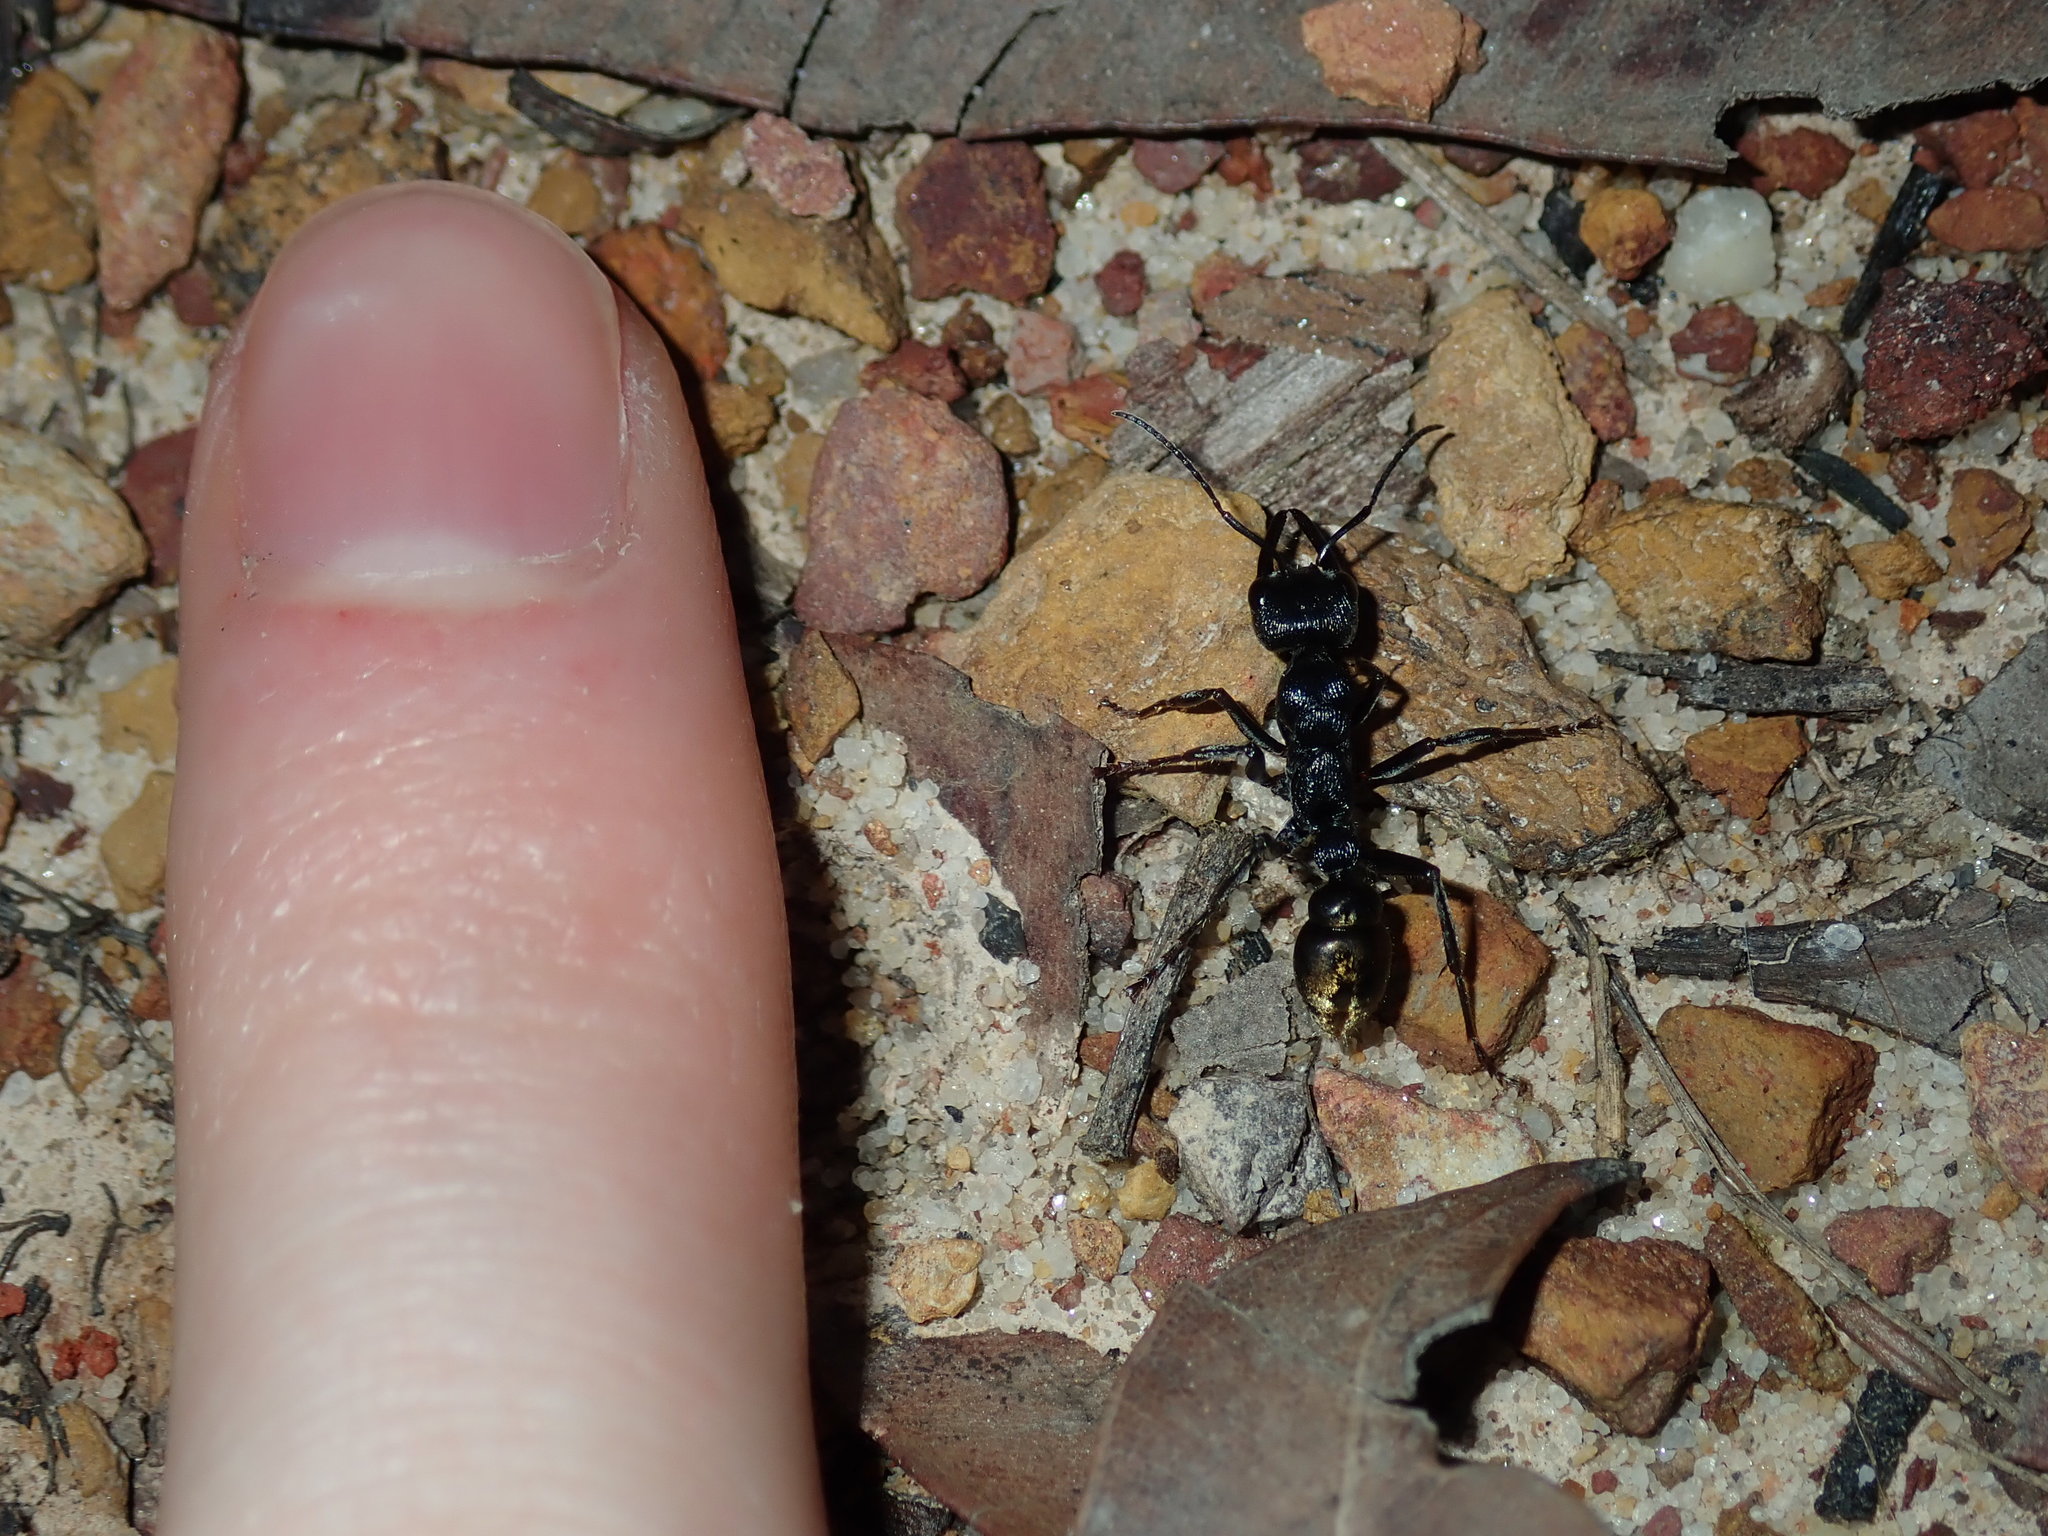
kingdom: Animalia
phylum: Arthropoda
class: Insecta
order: Hymenoptera
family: Formicidae
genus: Myrmecia
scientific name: Myrmecia piliventris
